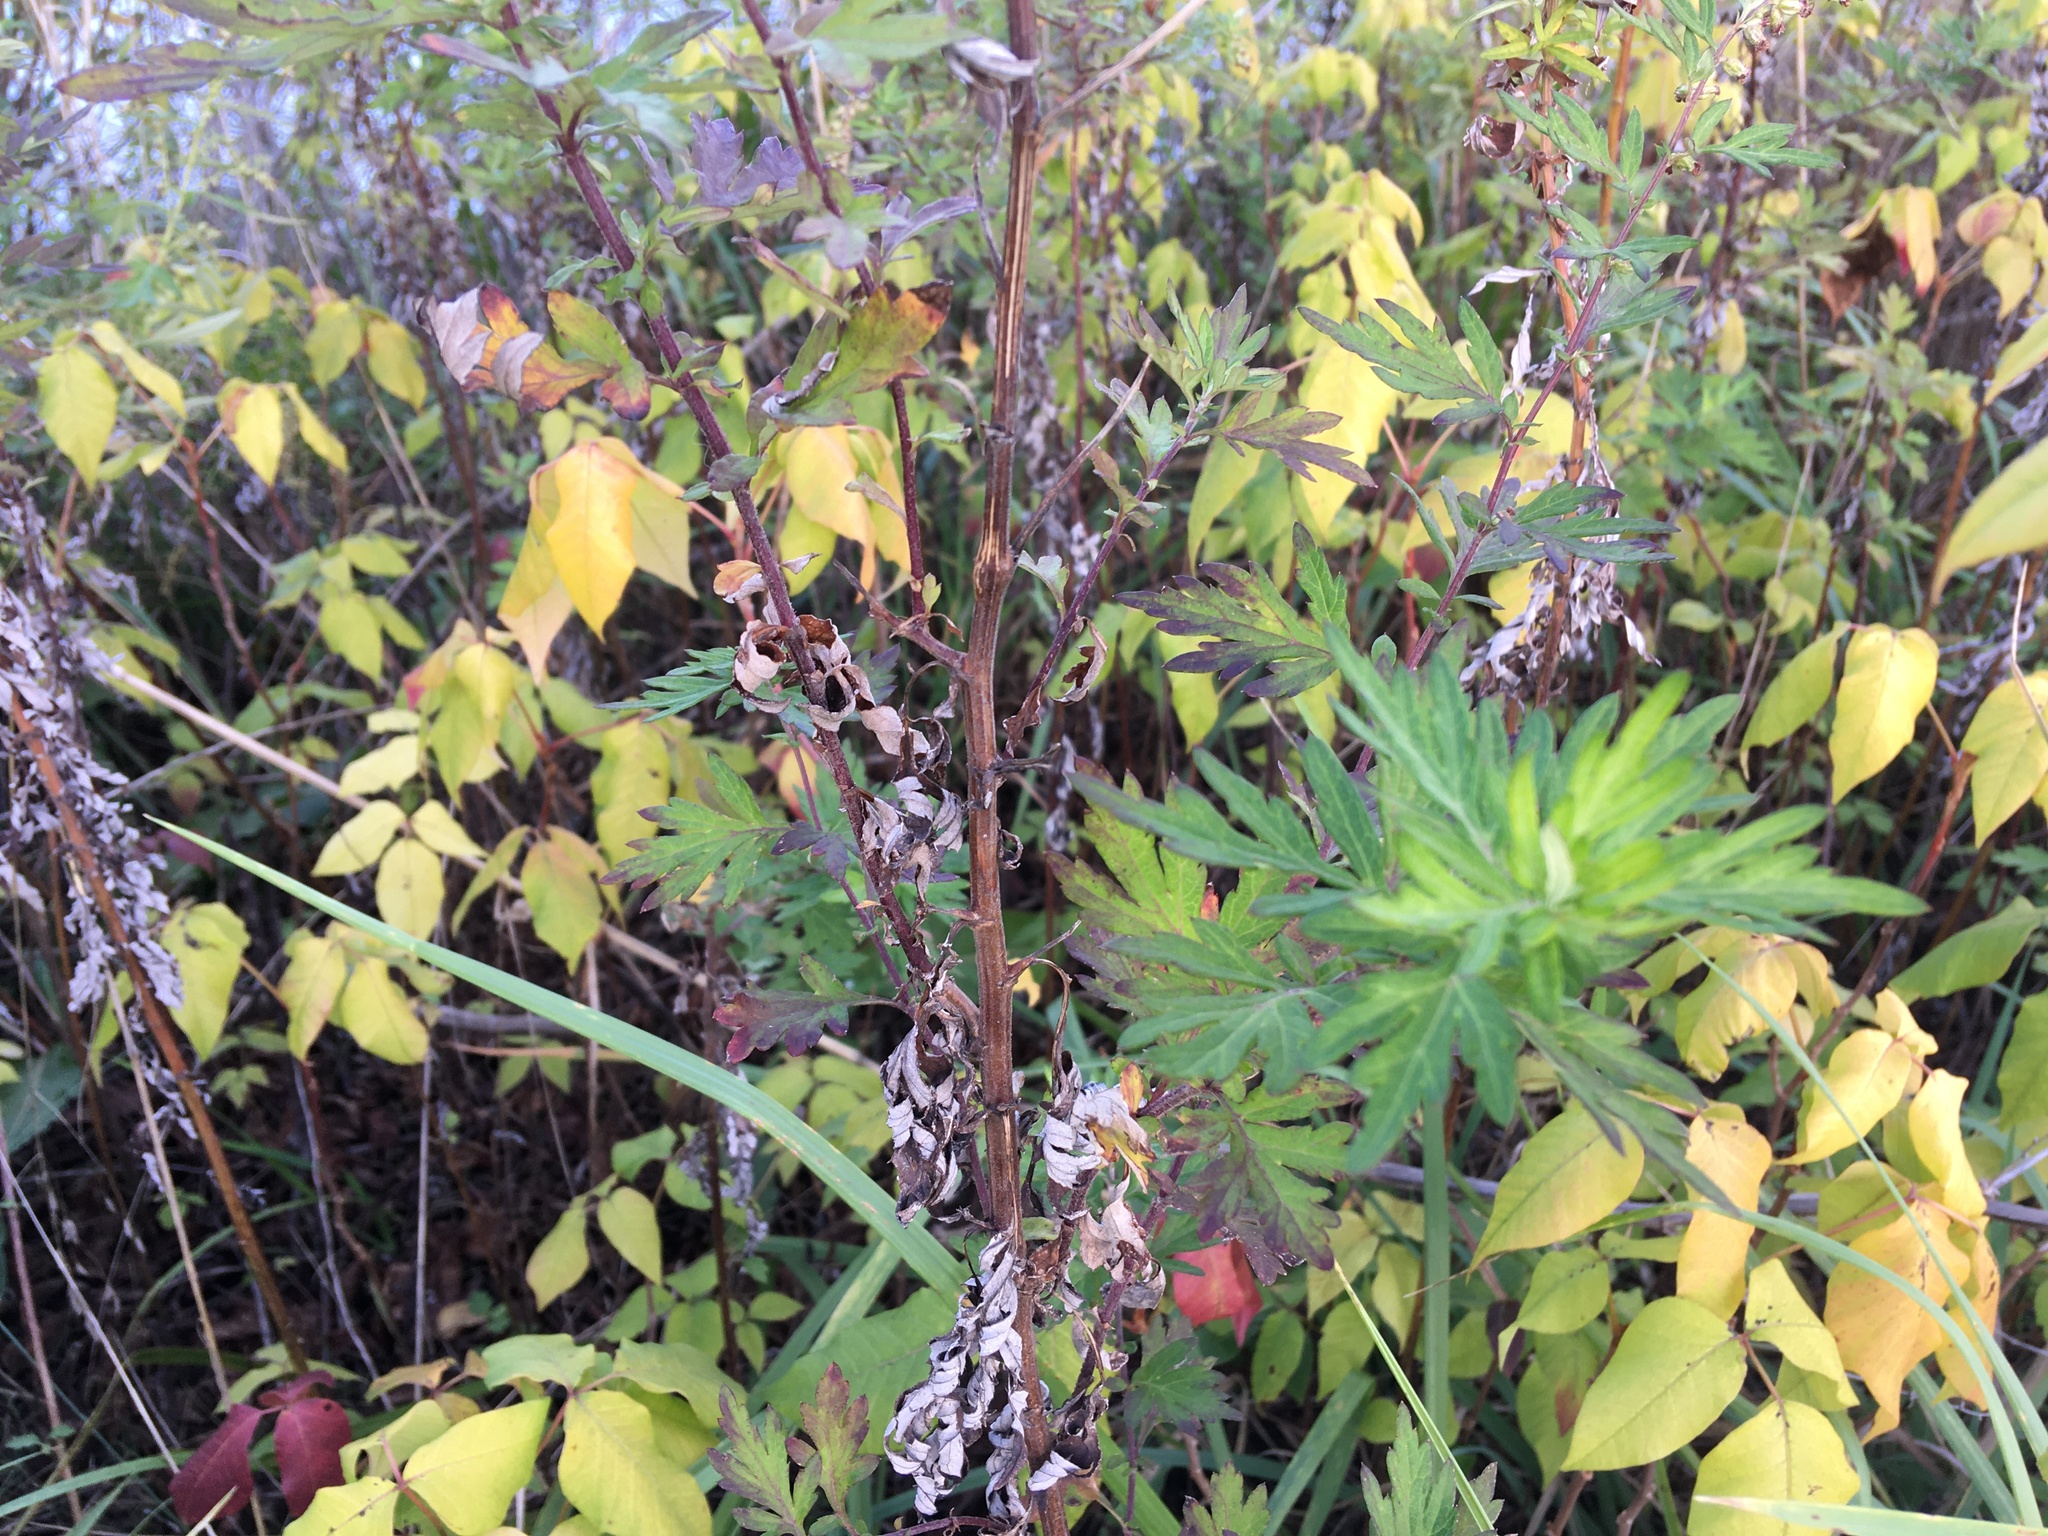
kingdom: Plantae
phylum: Tracheophyta
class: Magnoliopsida
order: Asterales
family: Asteraceae
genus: Artemisia
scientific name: Artemisia vulgaris
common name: Mugwort
